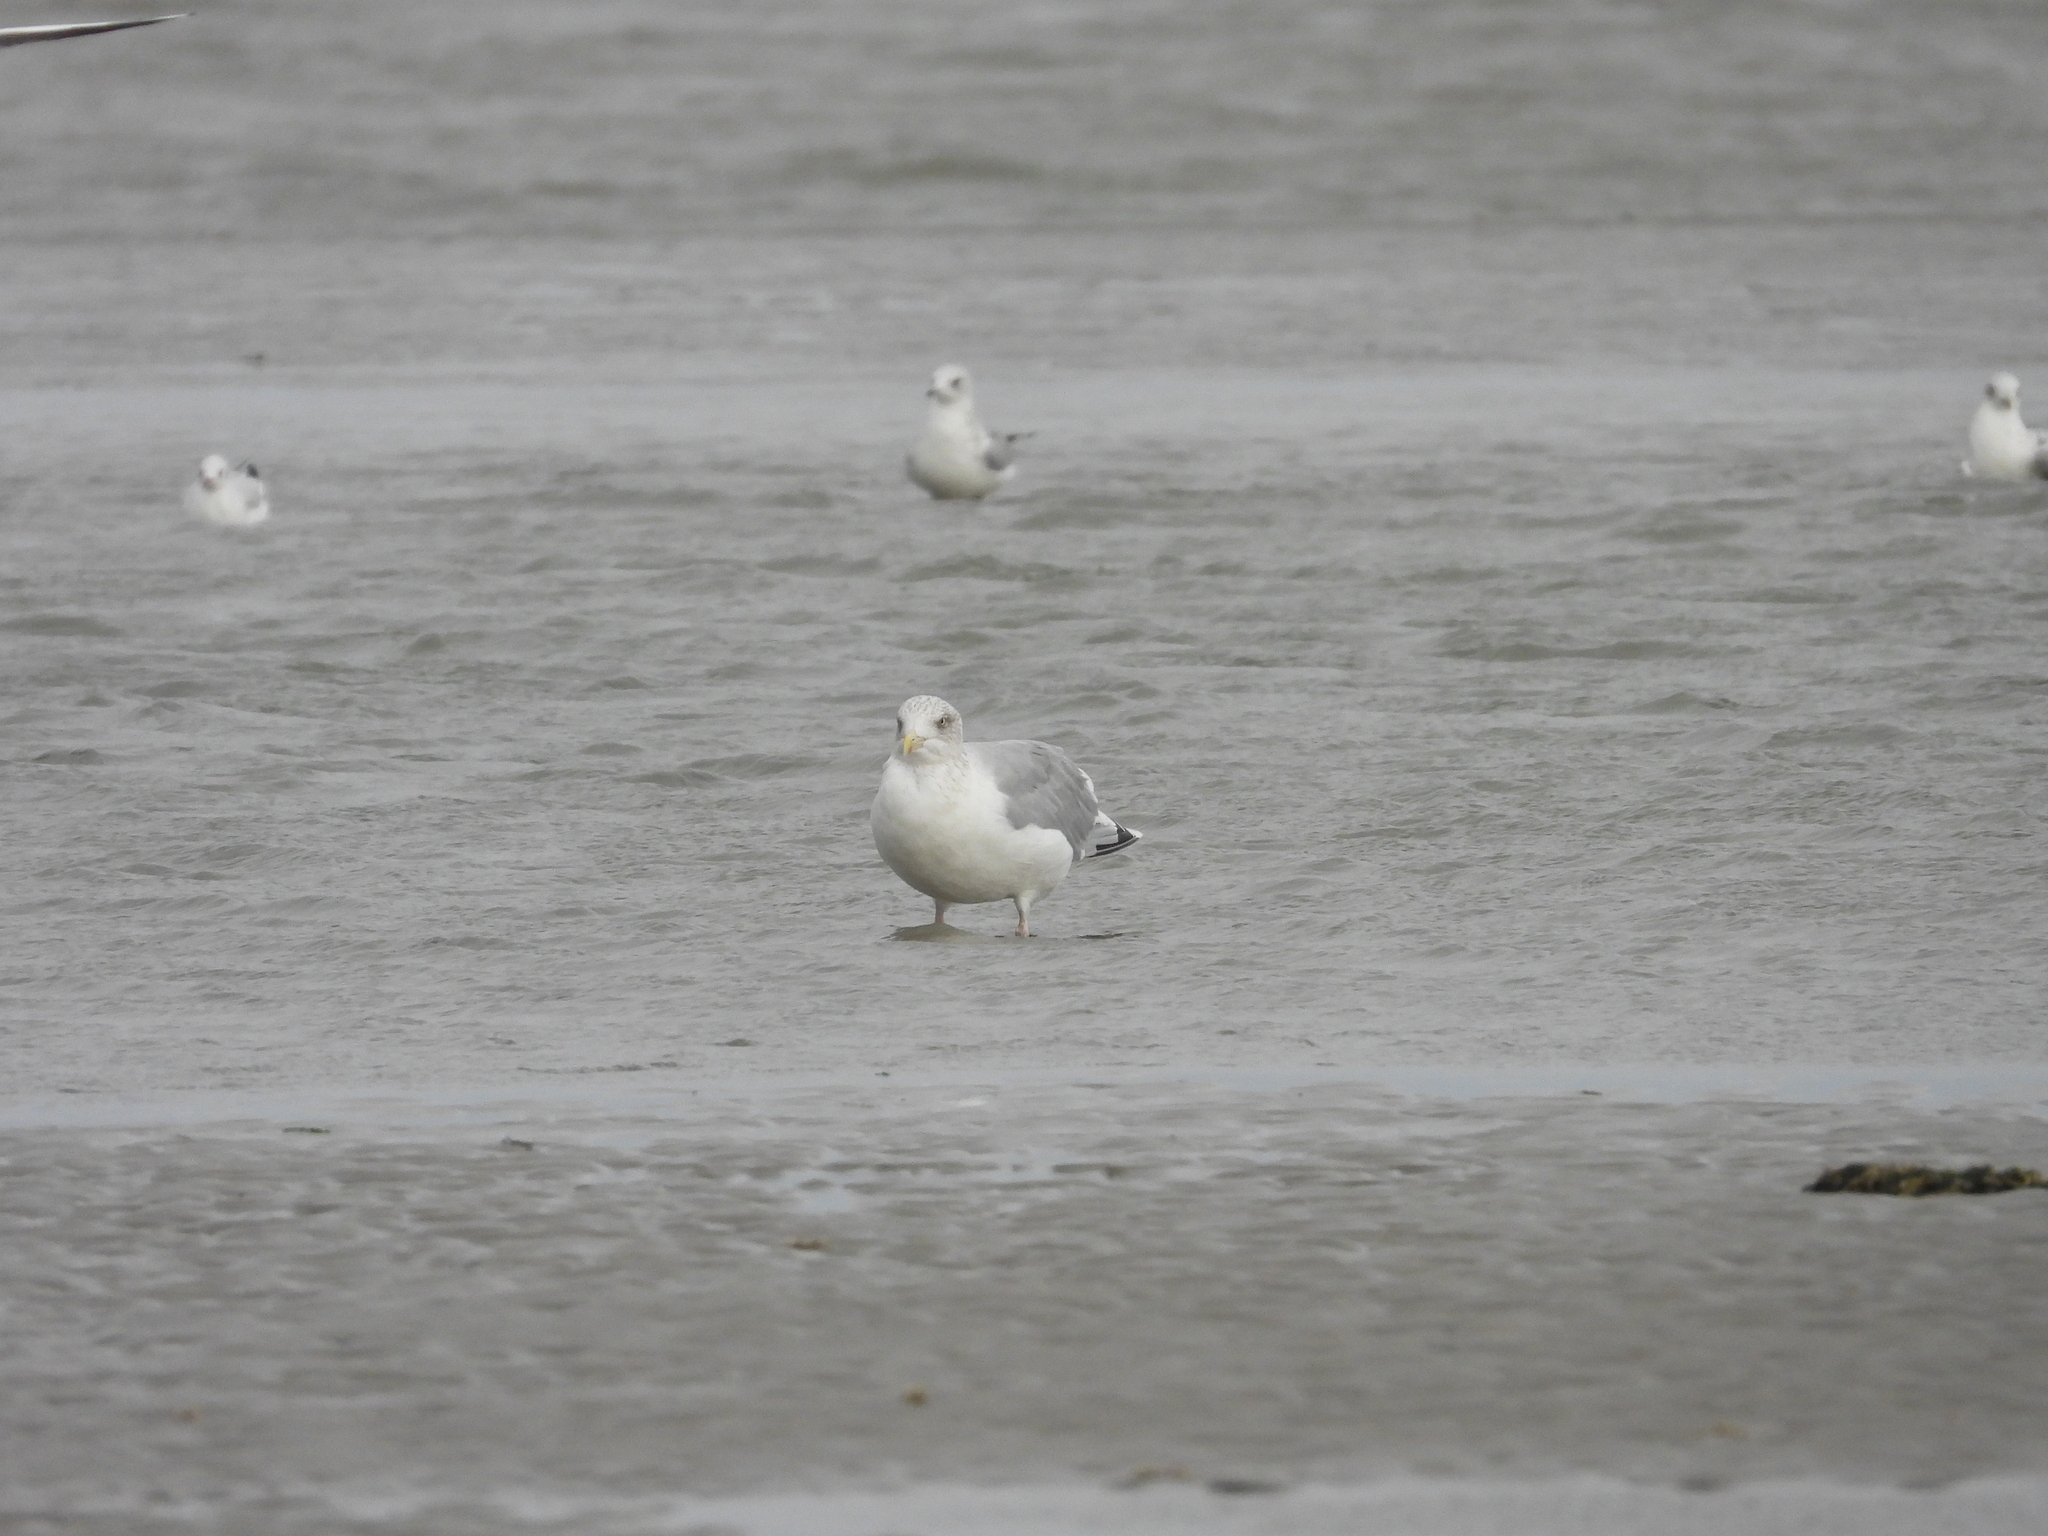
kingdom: Animalia
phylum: Chordata
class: Aves
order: Charadriiformes
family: Laridae
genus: Larus
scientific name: Larus argentatus
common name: Herring gull
